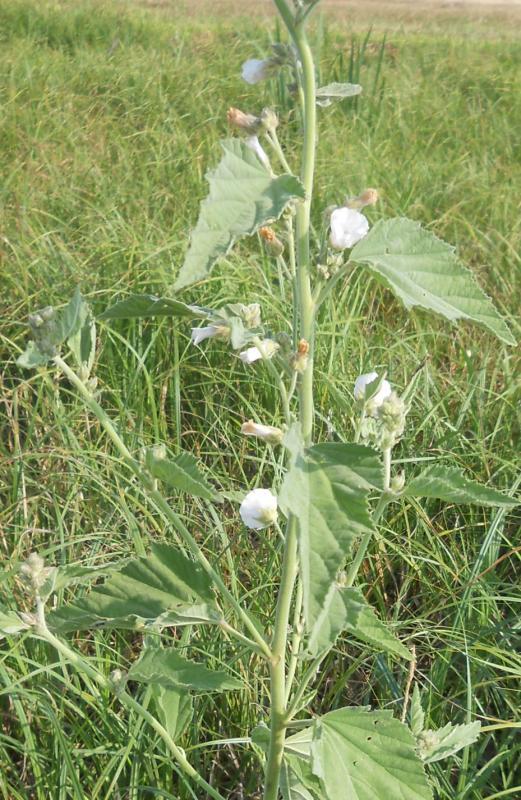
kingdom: Plantae
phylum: Tracheophyta
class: Magnoliopsida
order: Malvales
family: Malvaceae
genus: Althaea
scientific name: Althaea officinalis
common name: Marsh-mallow
